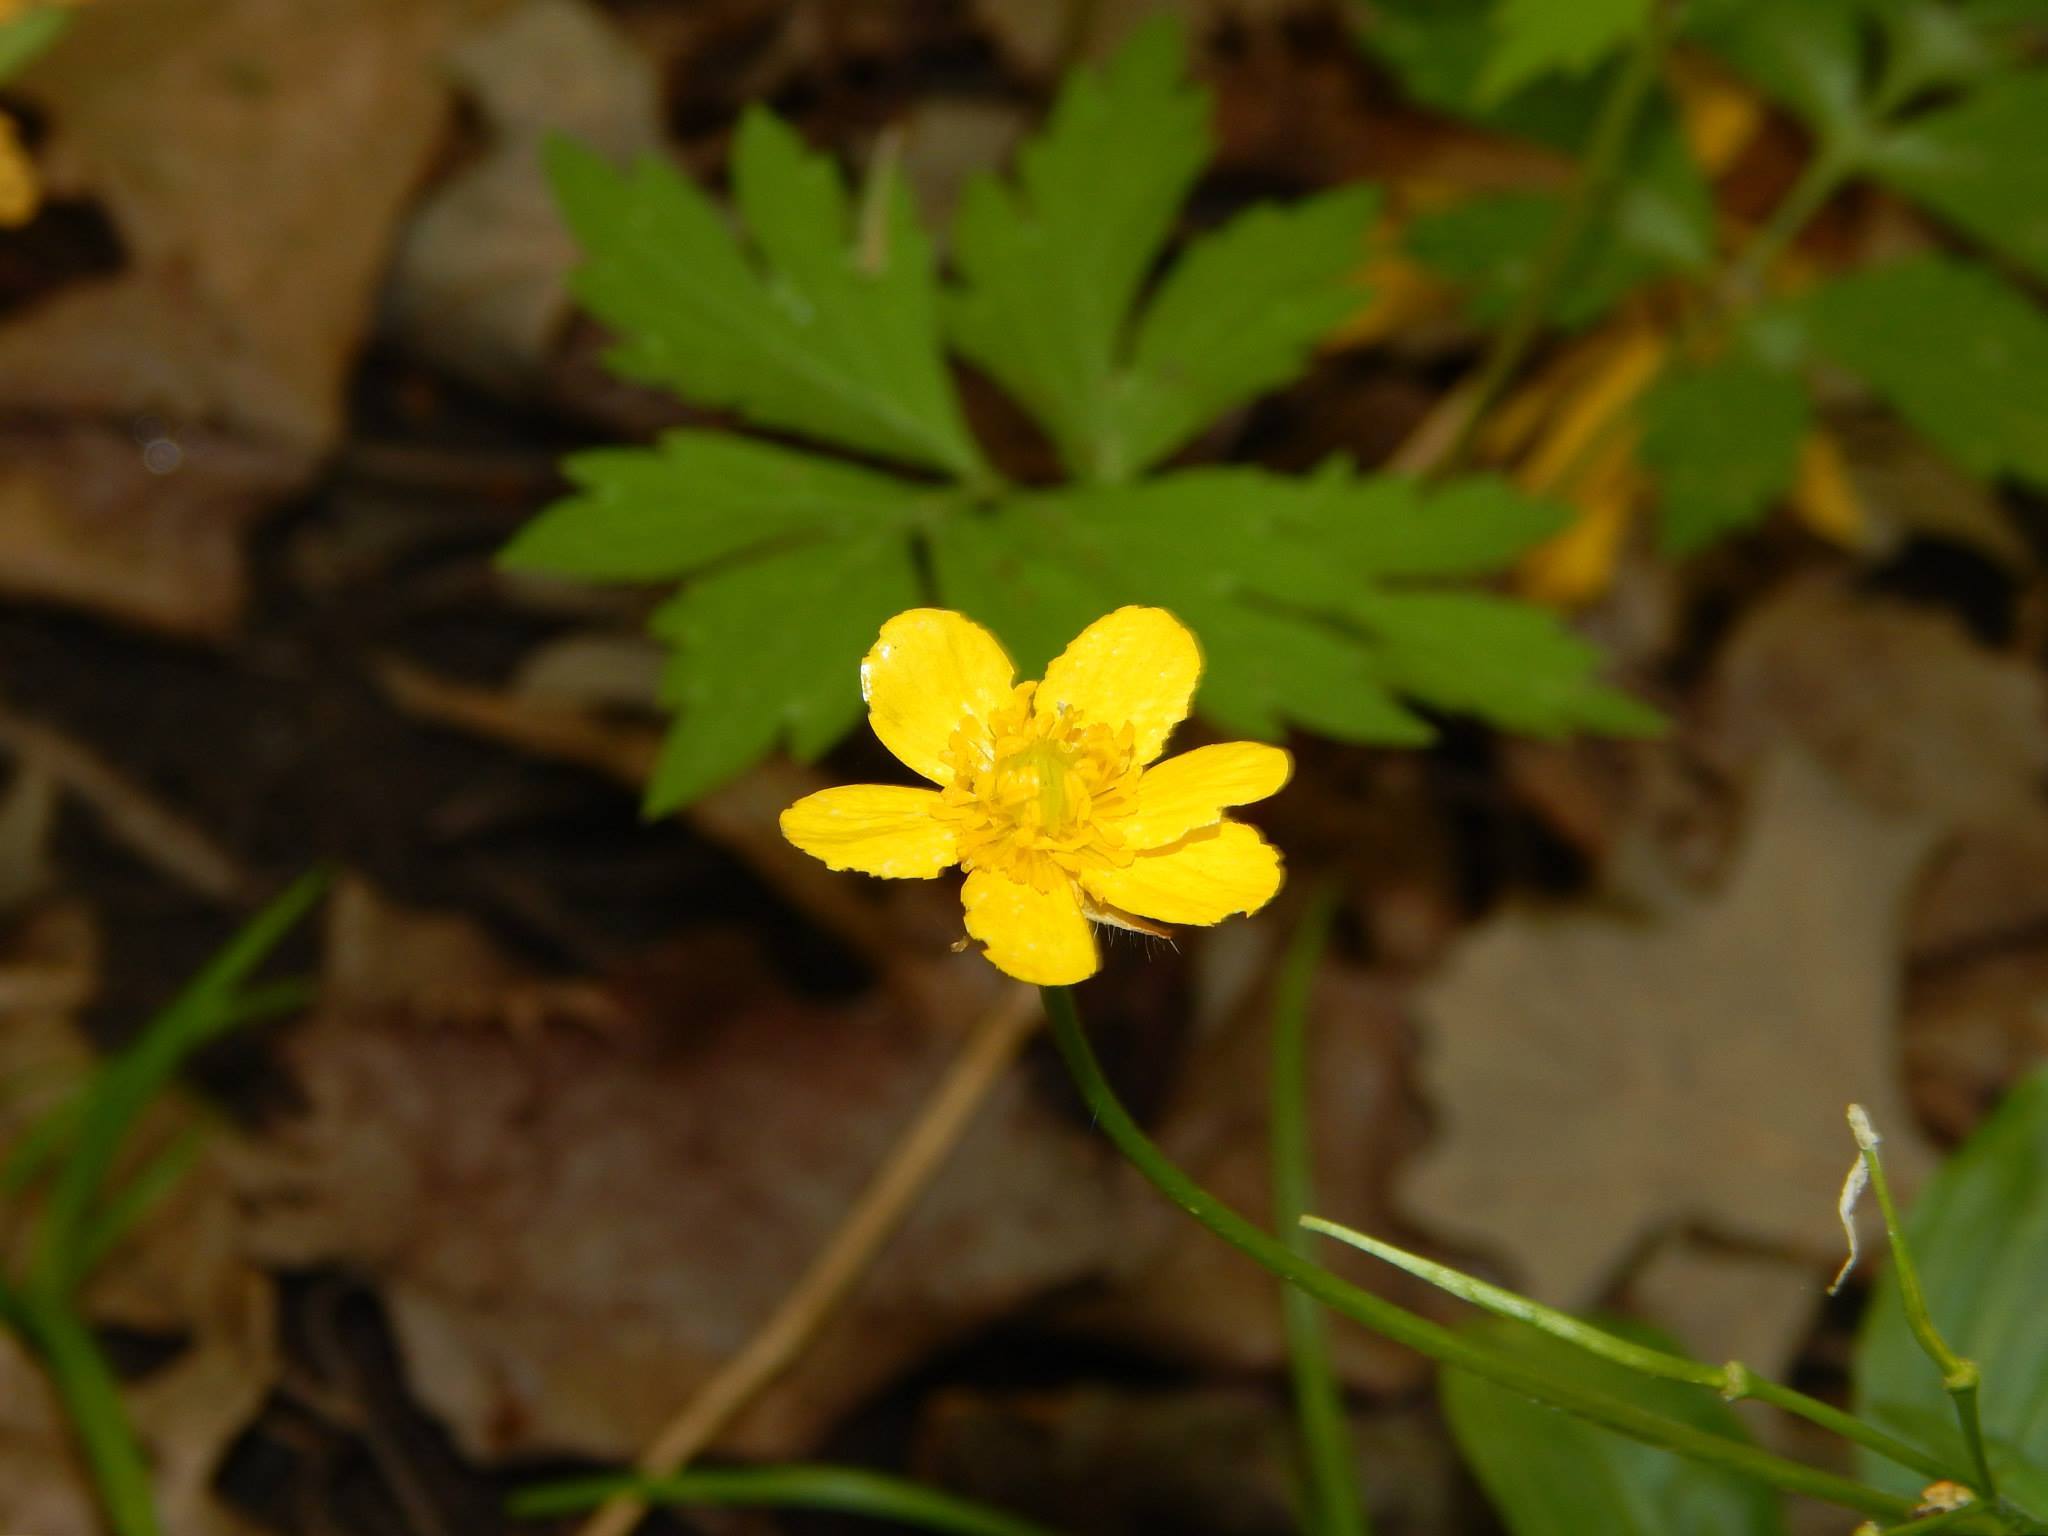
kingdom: Plantae
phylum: Tracheophyta
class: Magnoliopsida
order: Ranunculales
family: Ranunculaceae
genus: Ranunculus
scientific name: Ranunculus hispidus
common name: Bristly buttercup
